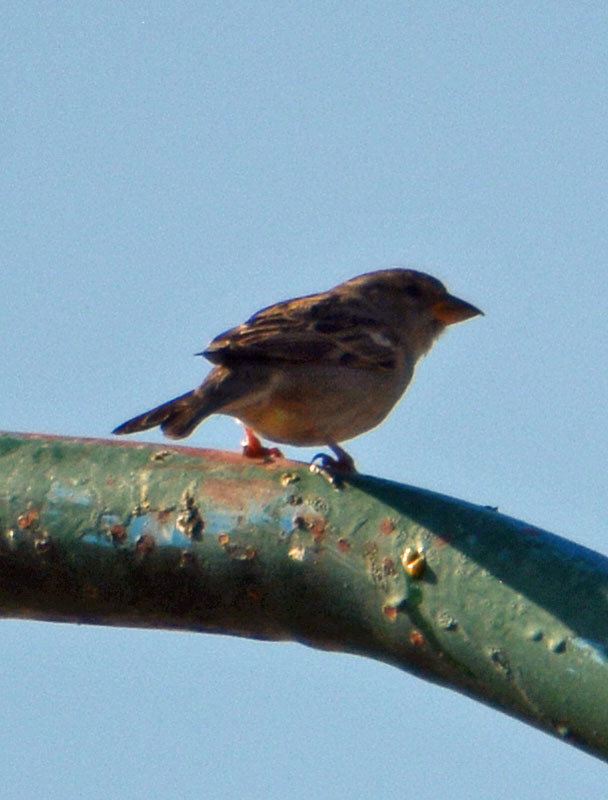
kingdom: Animalia
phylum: Chordata
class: Aves
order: Passeriformes
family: Passeridae
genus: Passer
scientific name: Passer domesticus
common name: House sparrow
